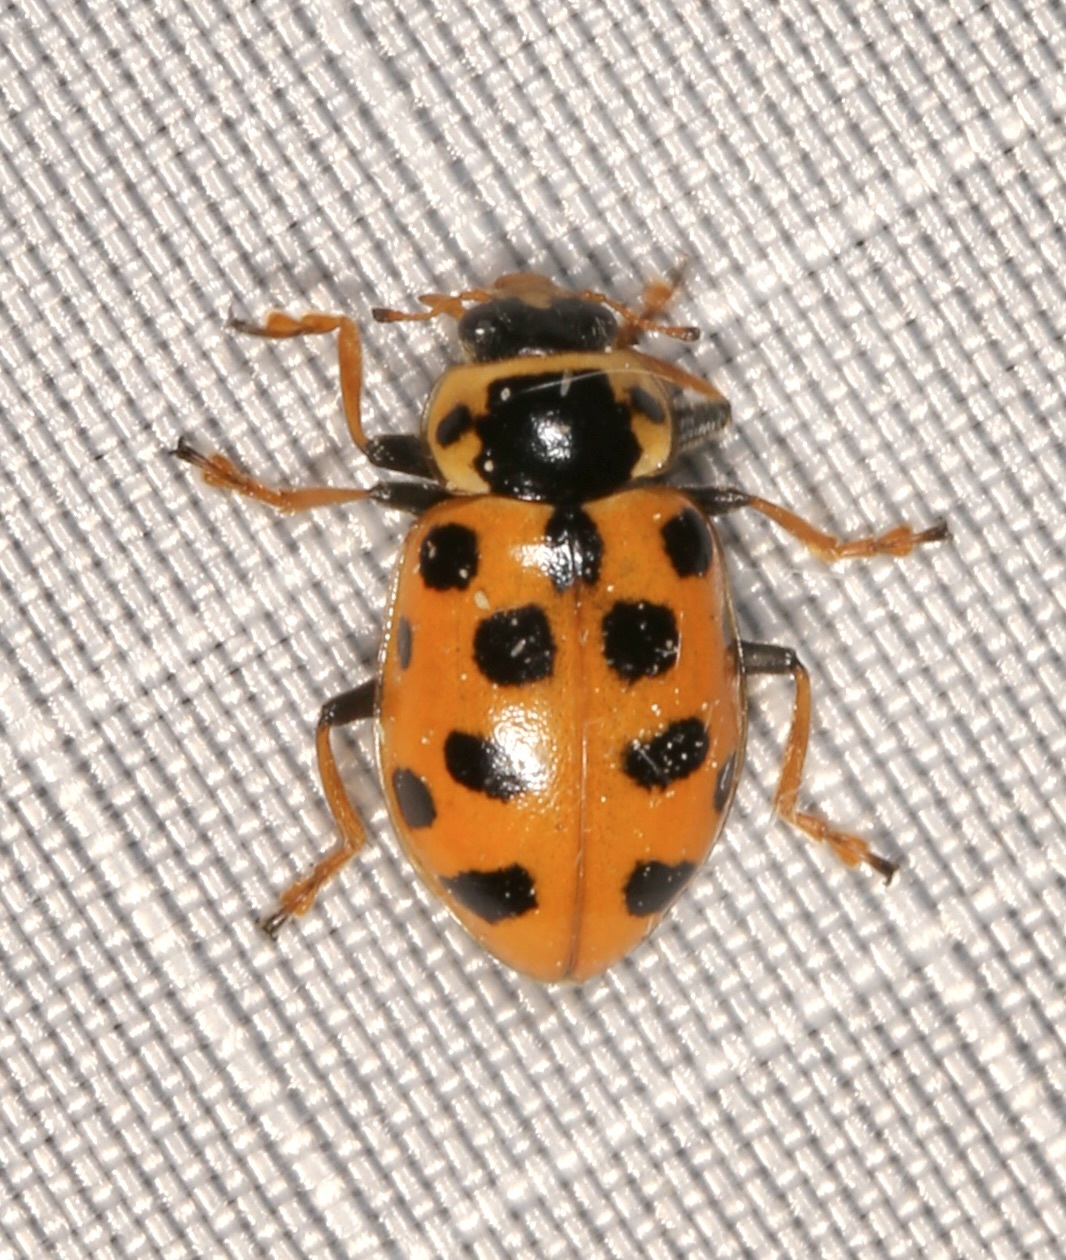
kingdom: Animalia
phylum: Arthropoda
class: Insecta
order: Coleoptera
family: Coccinellidae
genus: Hippodamia
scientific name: Hippodamia tredecimpunctata
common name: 13-spot ladybird
